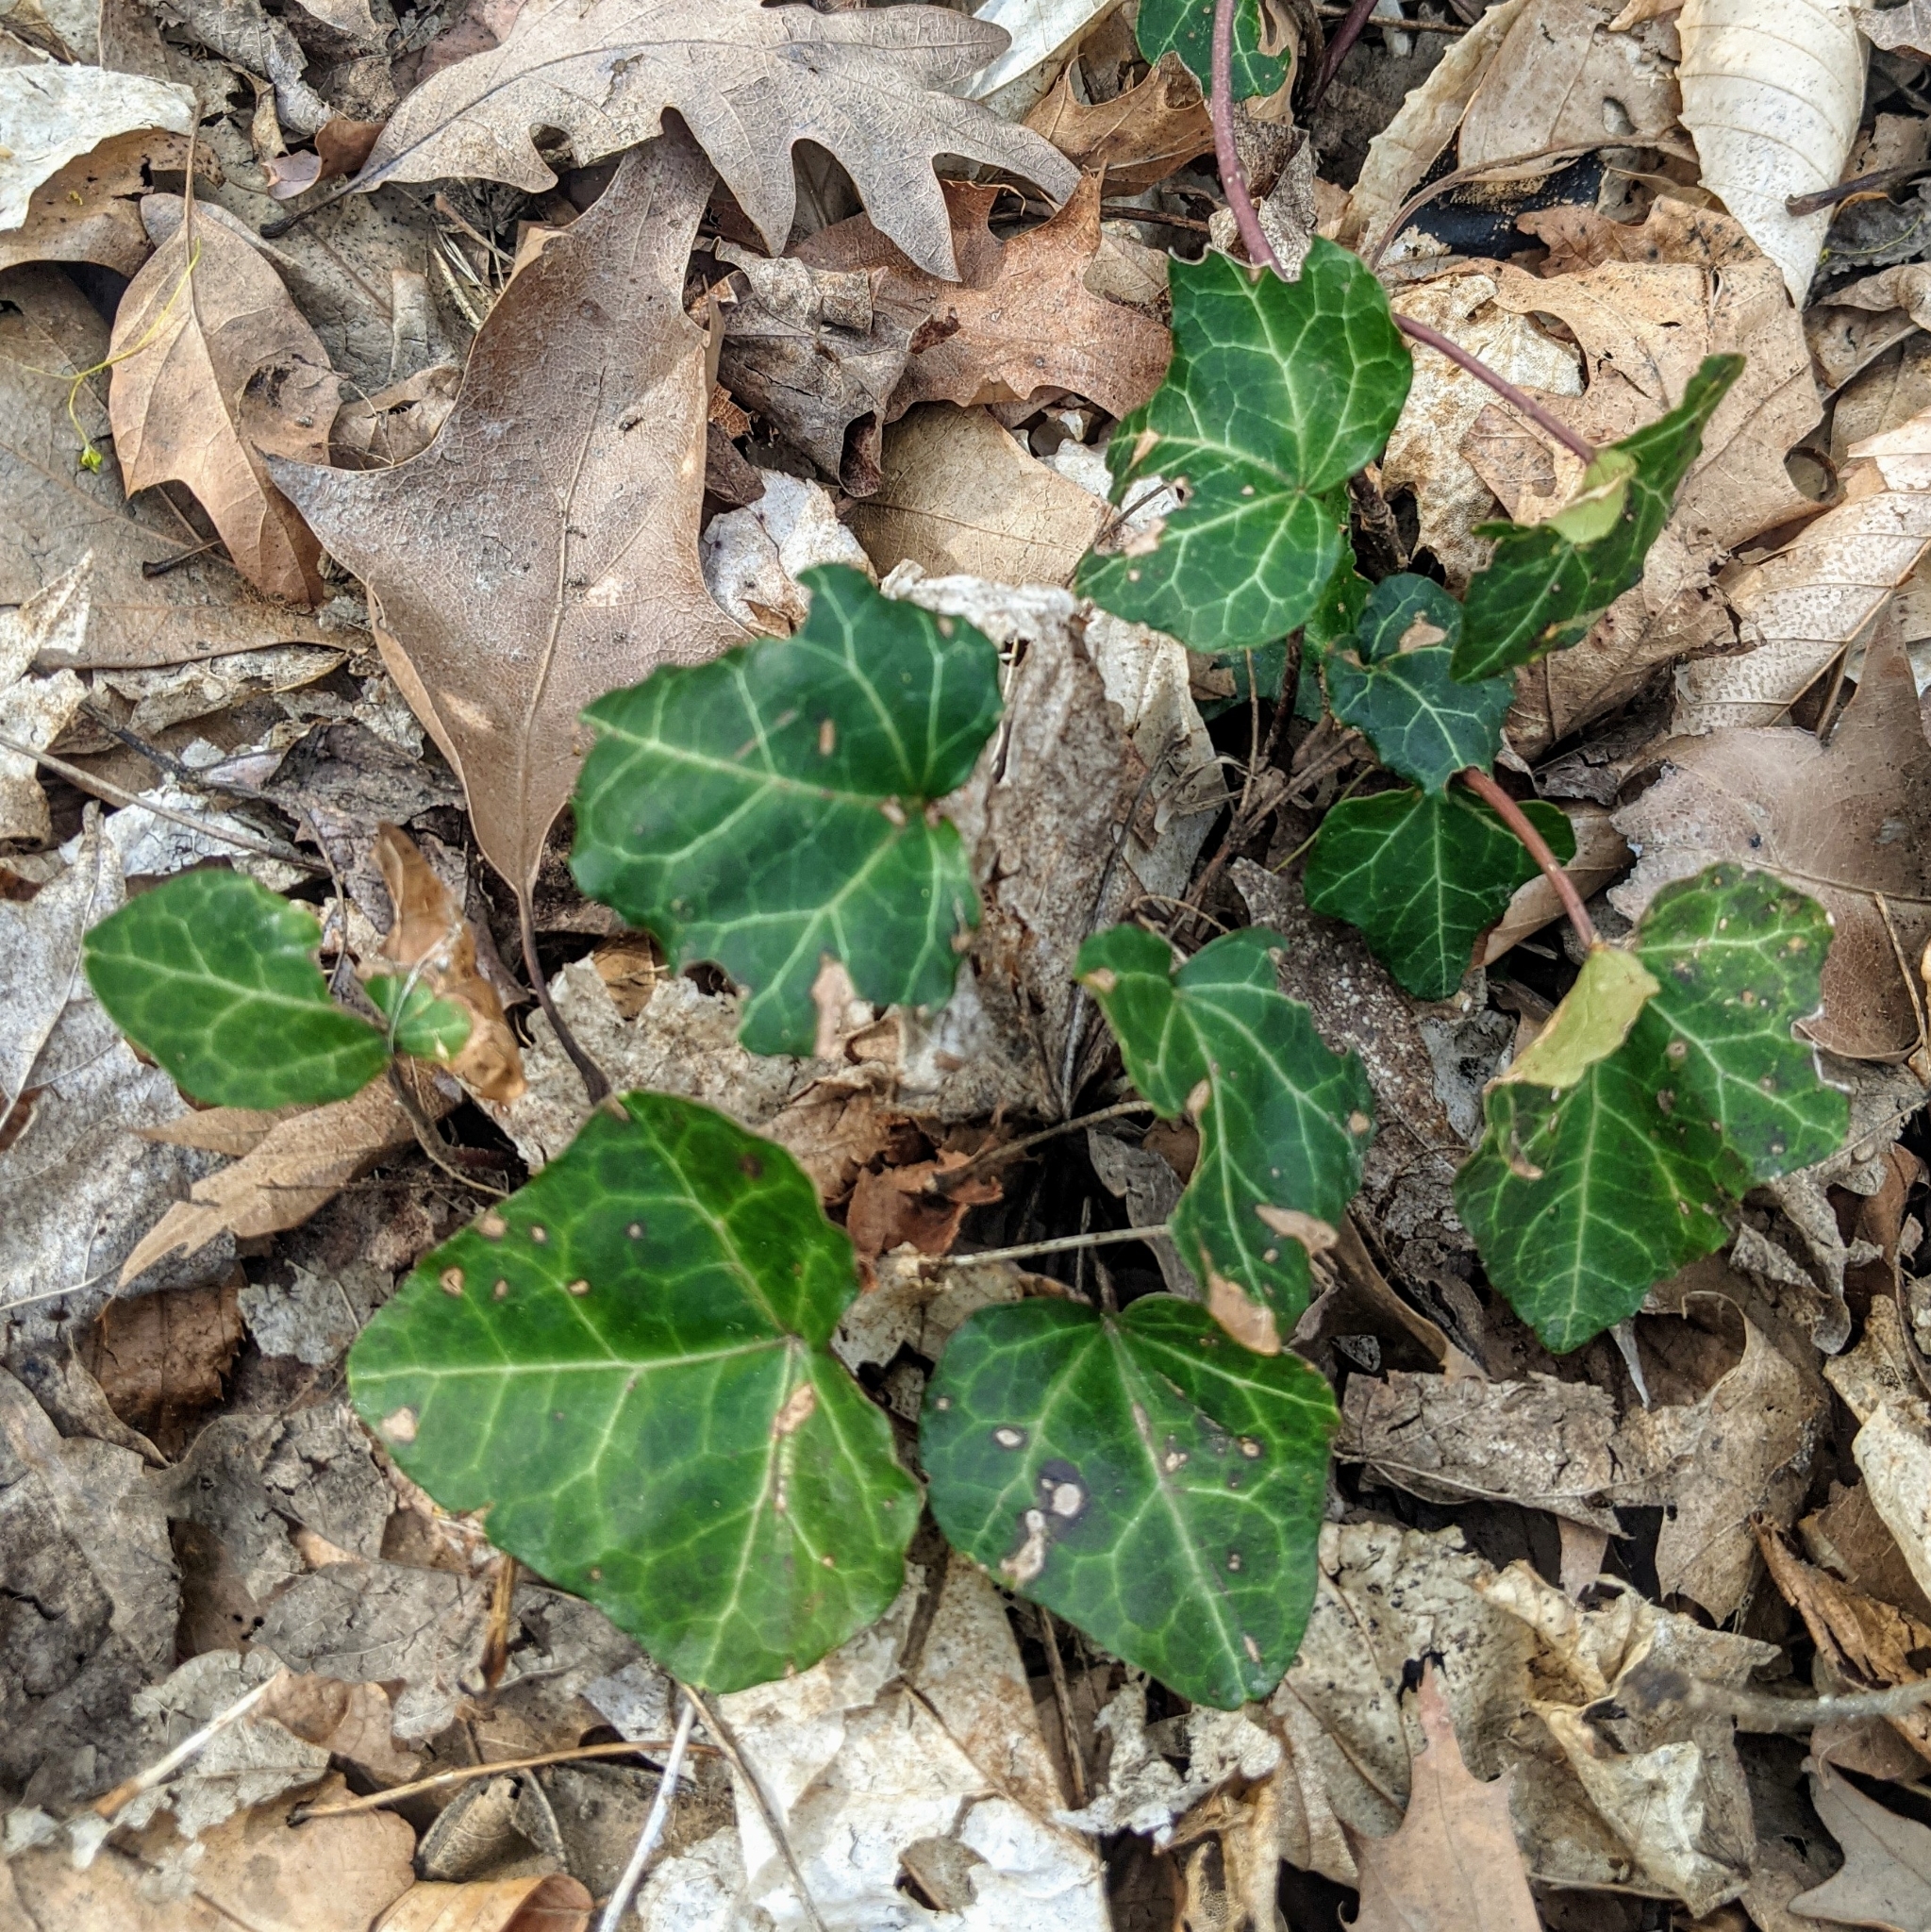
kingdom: Plantae
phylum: Tracheophyta
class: Magnoliopsida
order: Apiales
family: Araliaceae
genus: Hedera
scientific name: Hedera helix
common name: Ivy
